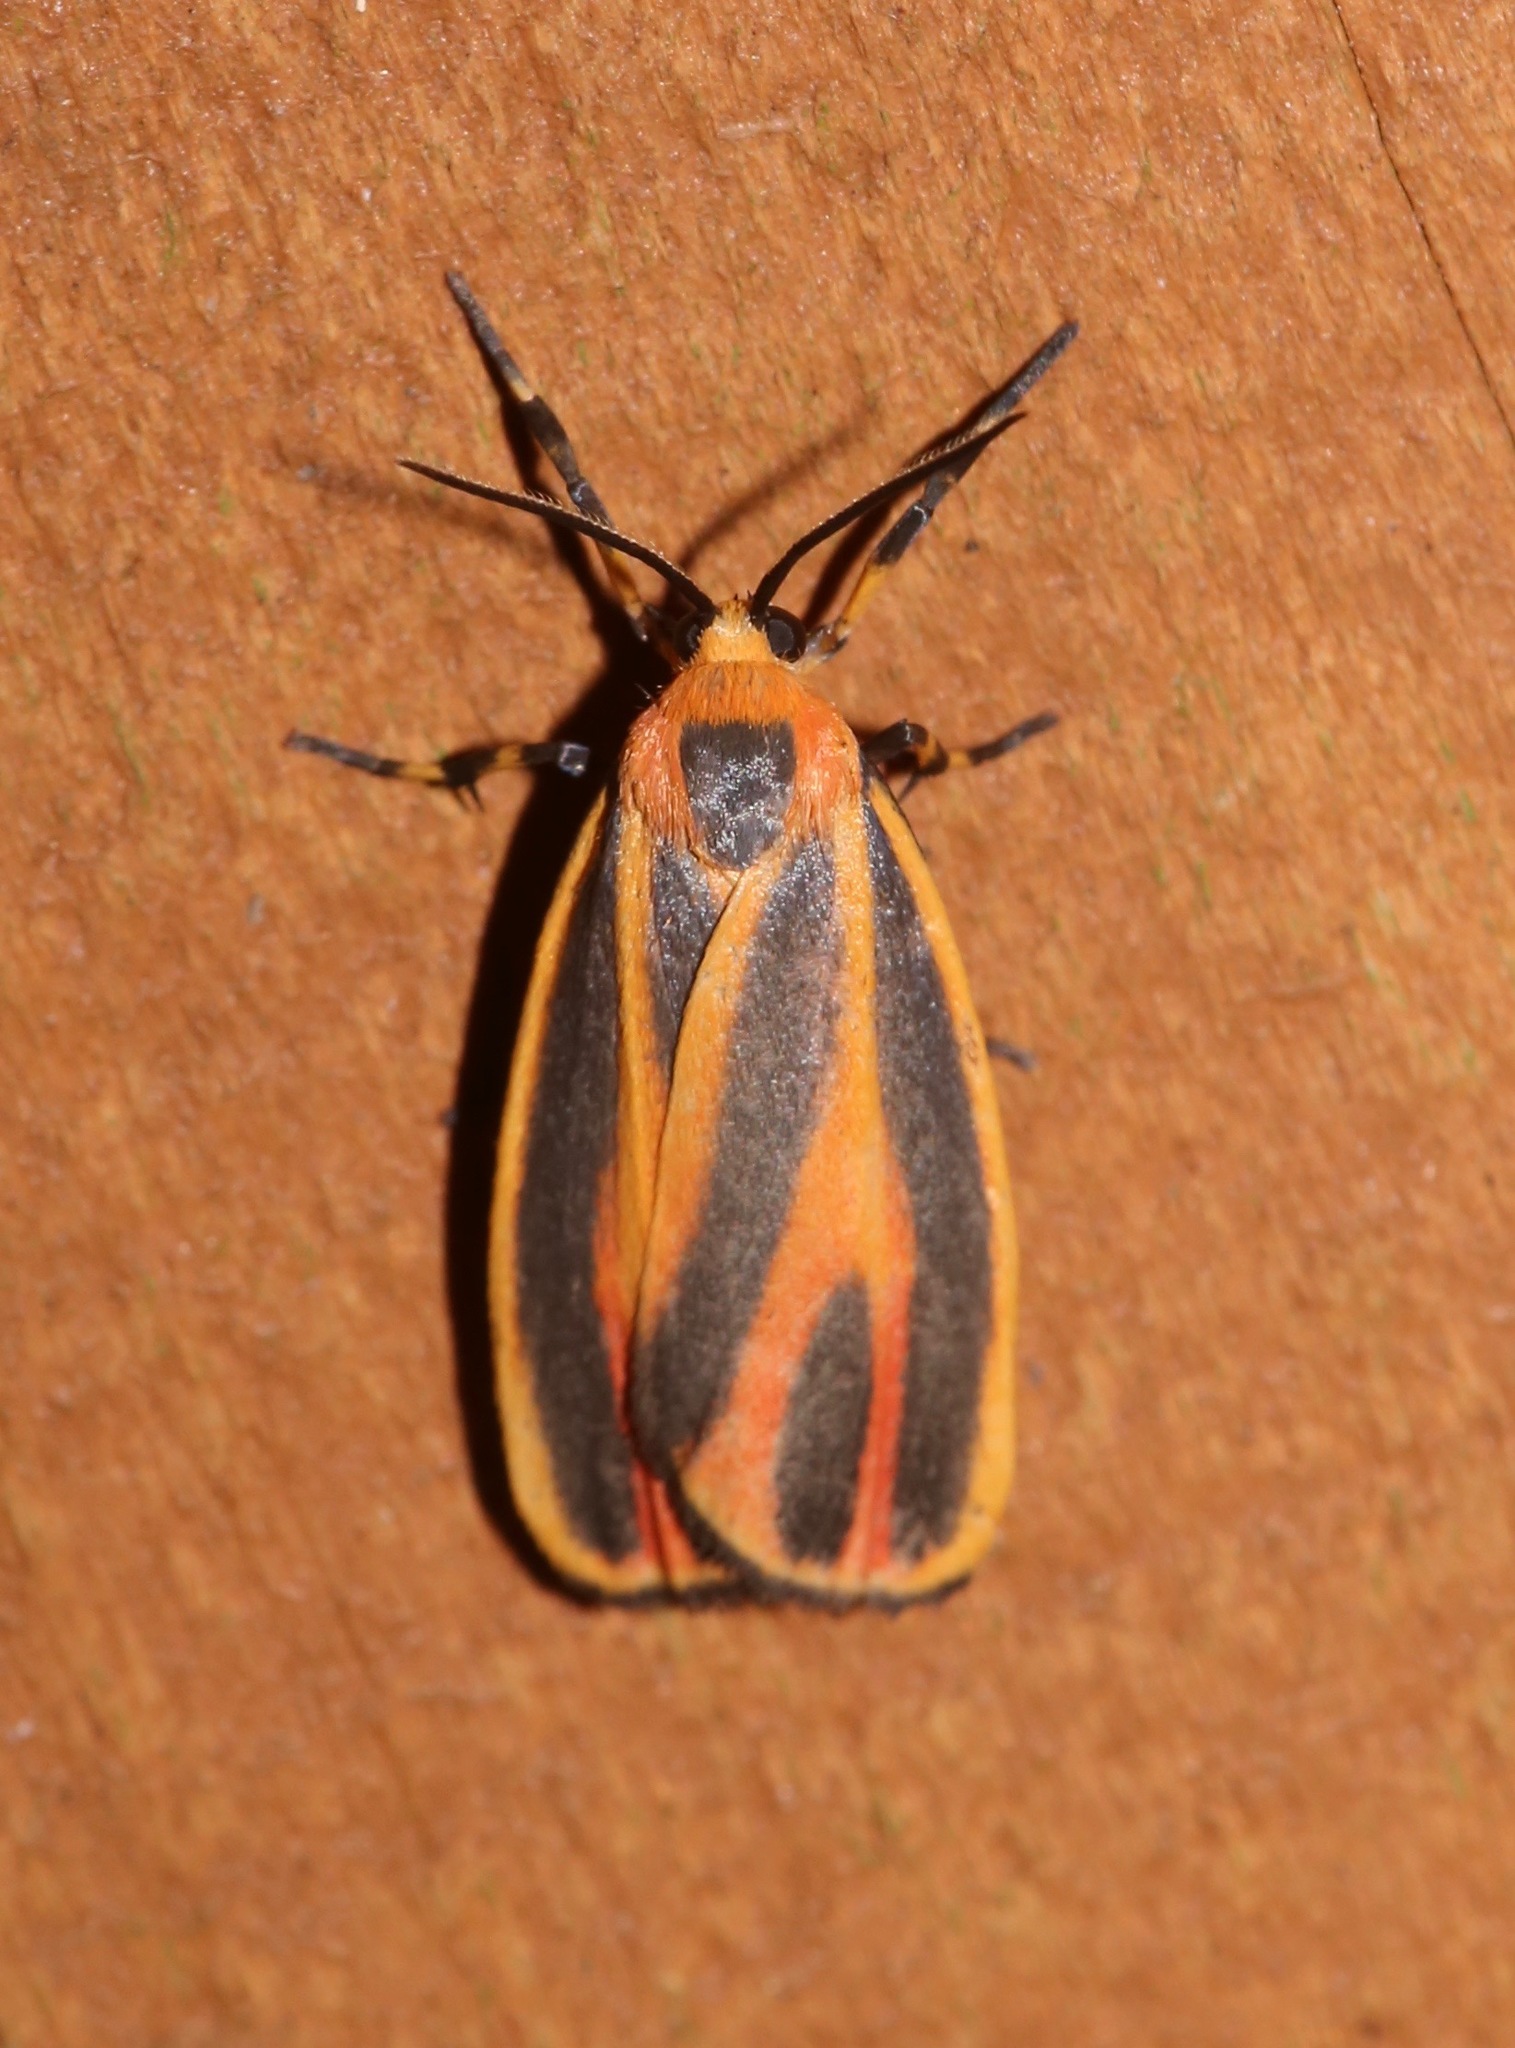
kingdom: Animalia
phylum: Arthropoda
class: Insecta
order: Lepidoptera
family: Erebidae
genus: Hypoprepia
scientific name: Hypoprepia fucosa
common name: Painted lichen moth
